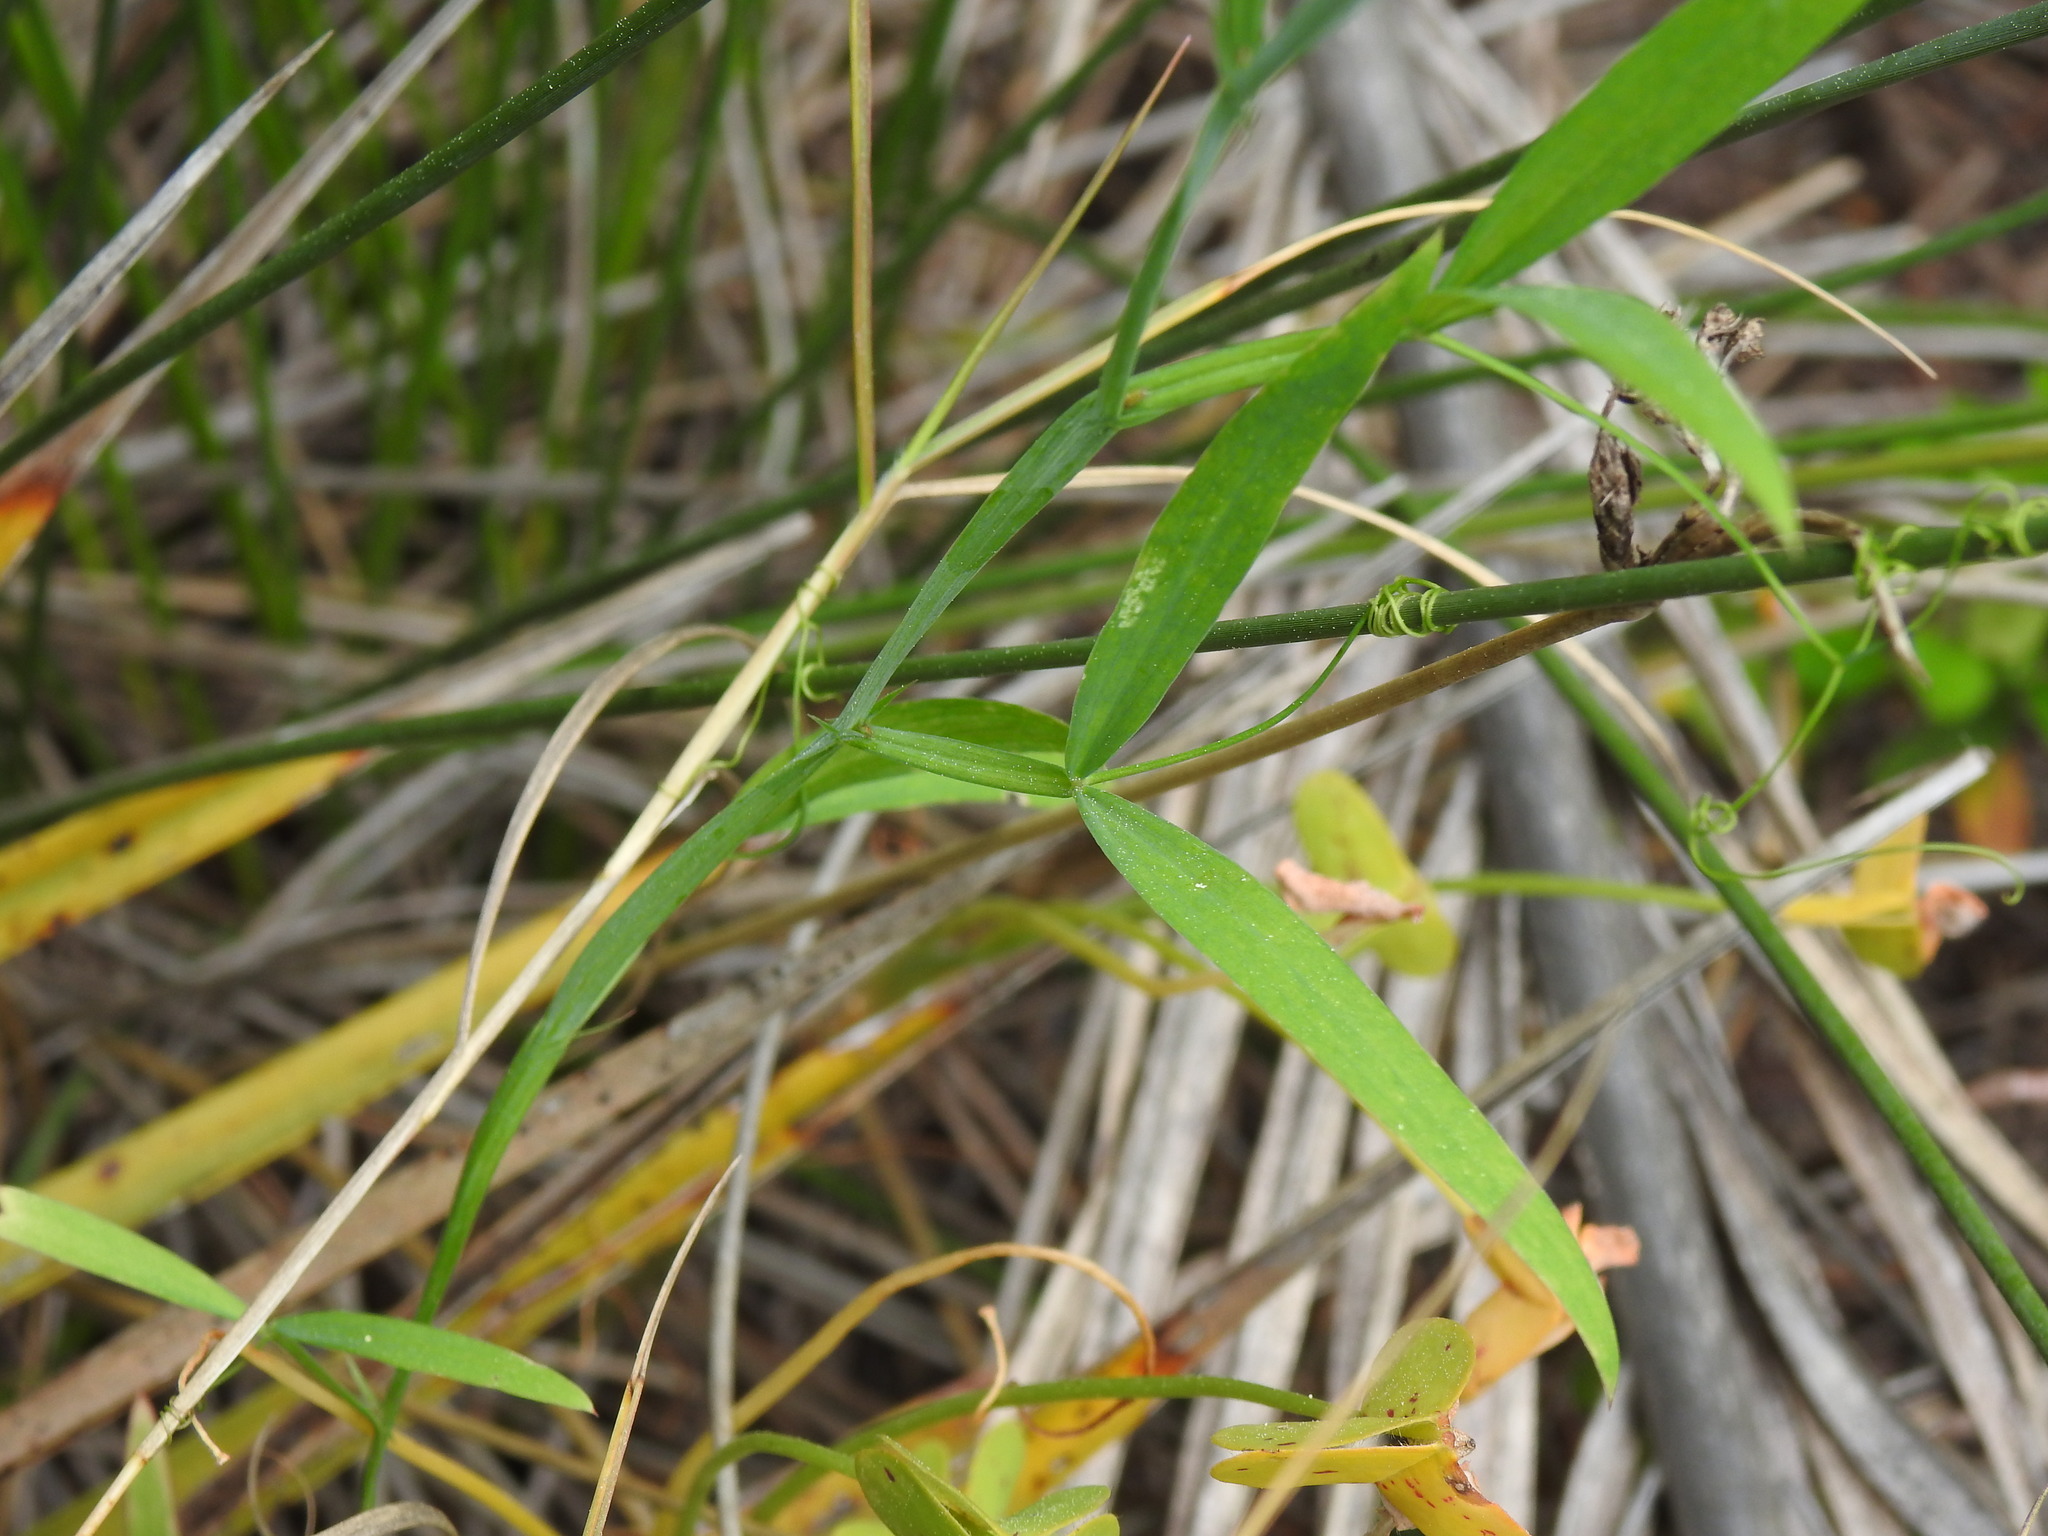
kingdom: Plantae
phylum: Tracheophyta
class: Magnoliopsida
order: Fabales
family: Fabaceae
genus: Lathyrus
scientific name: Lathyrus annuus
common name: Fodder pea
